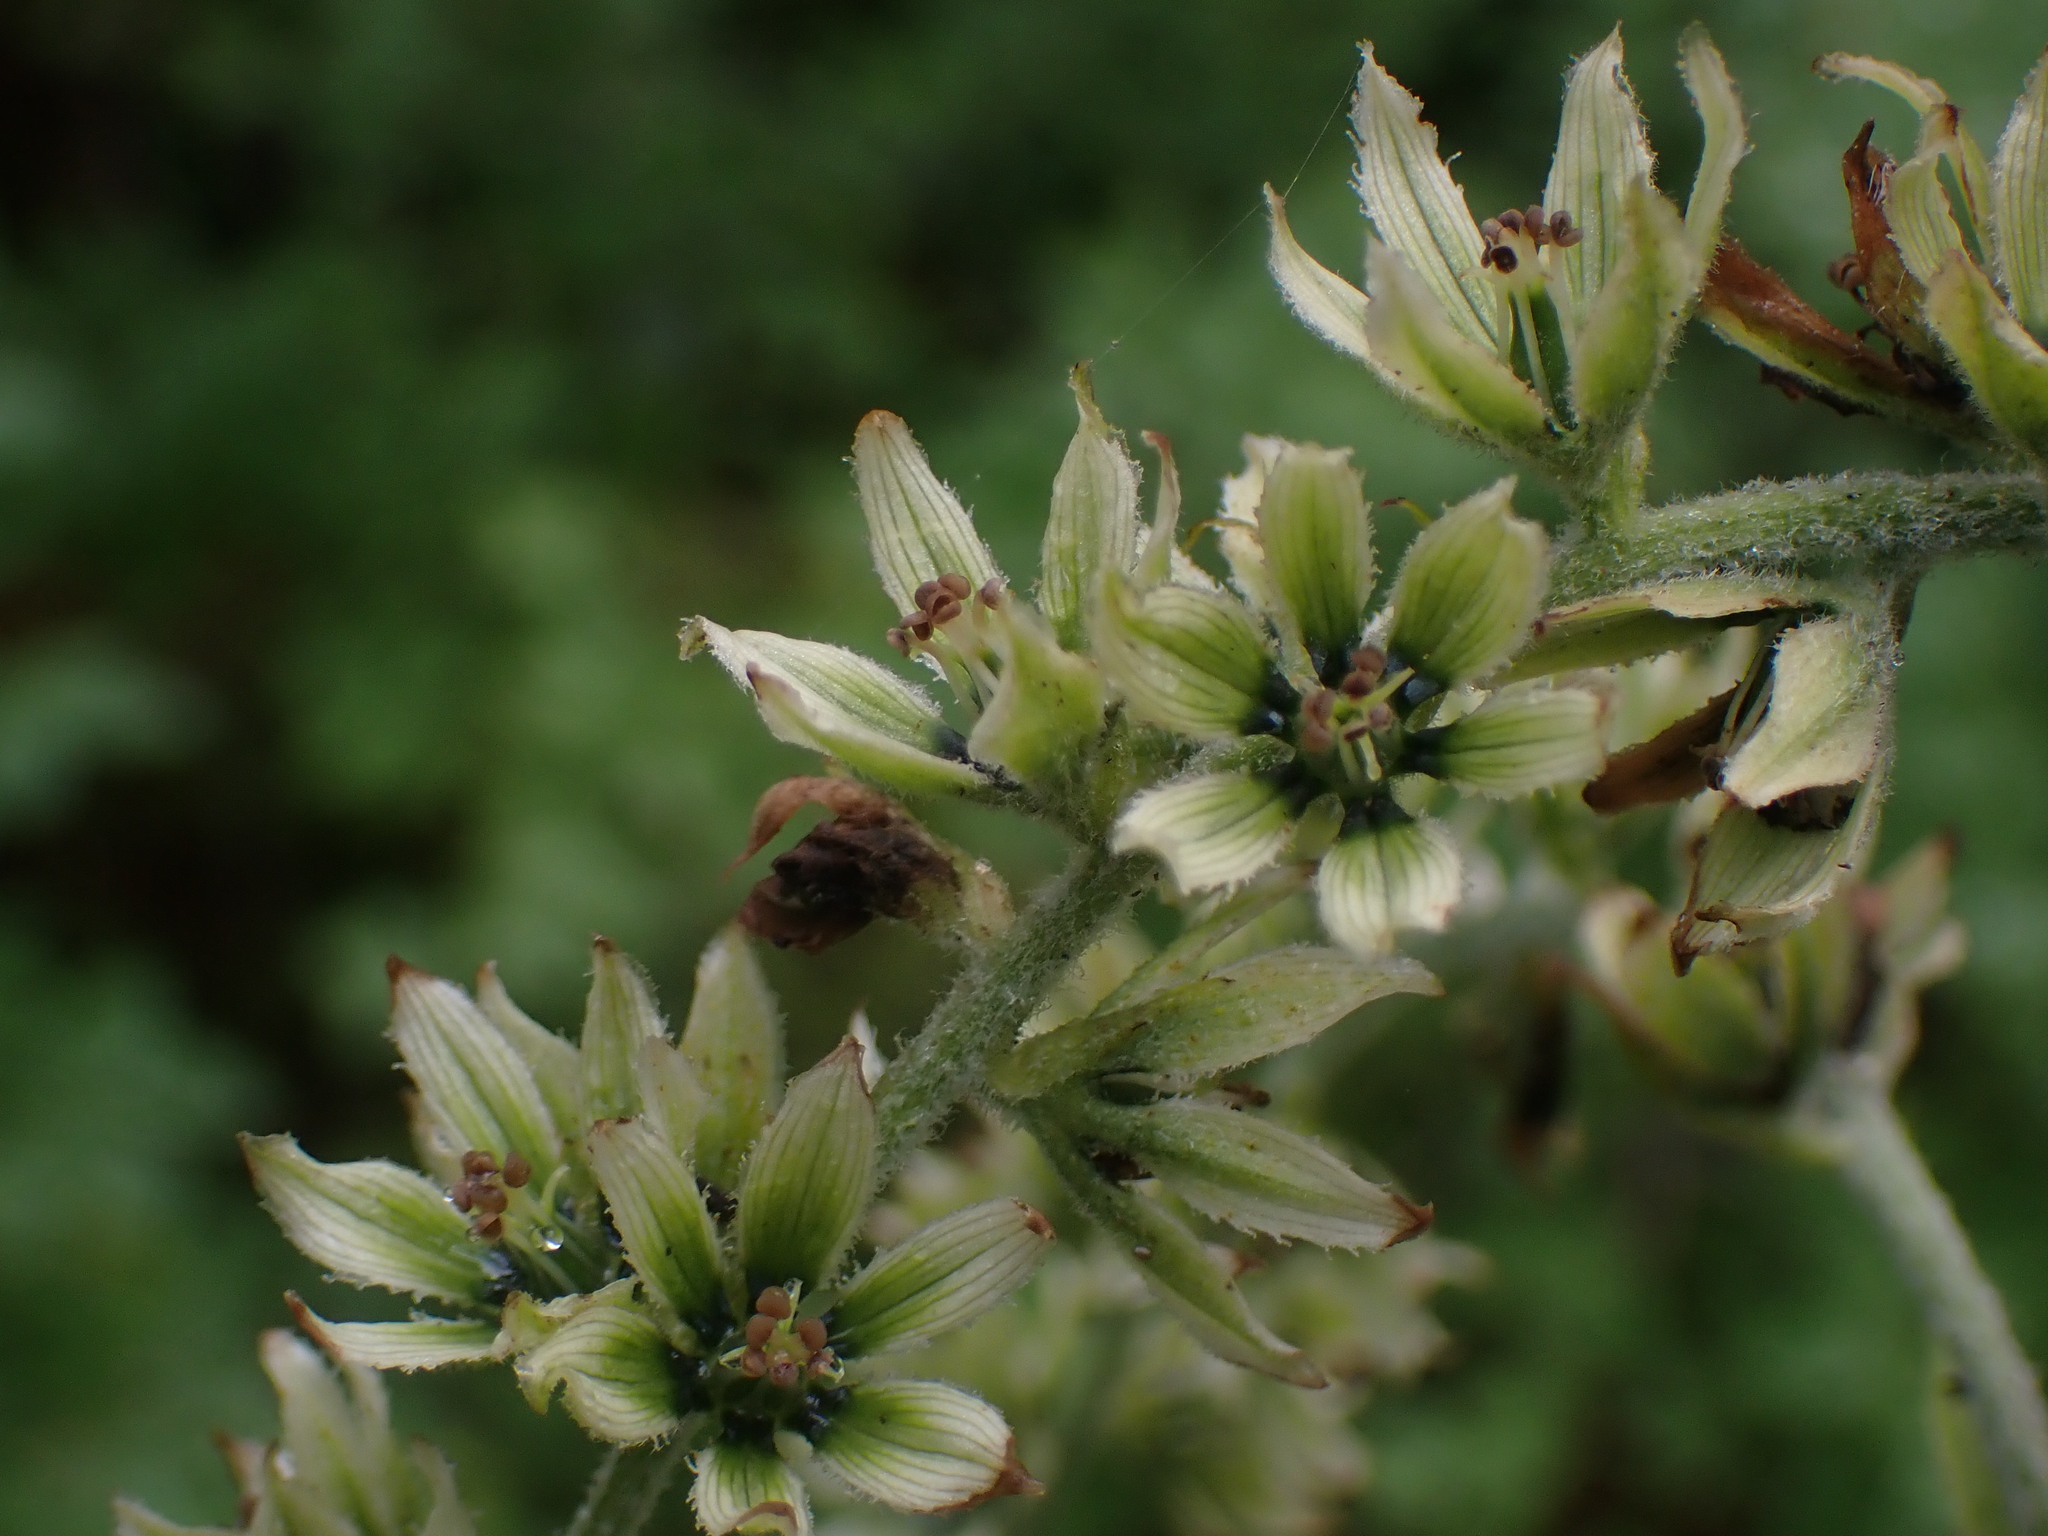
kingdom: Plantae
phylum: Tracheophyta
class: Liliopsida
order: Liliales
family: Melanthiaceae
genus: Veratrum
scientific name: Veratrum viride
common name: American false hellebore
